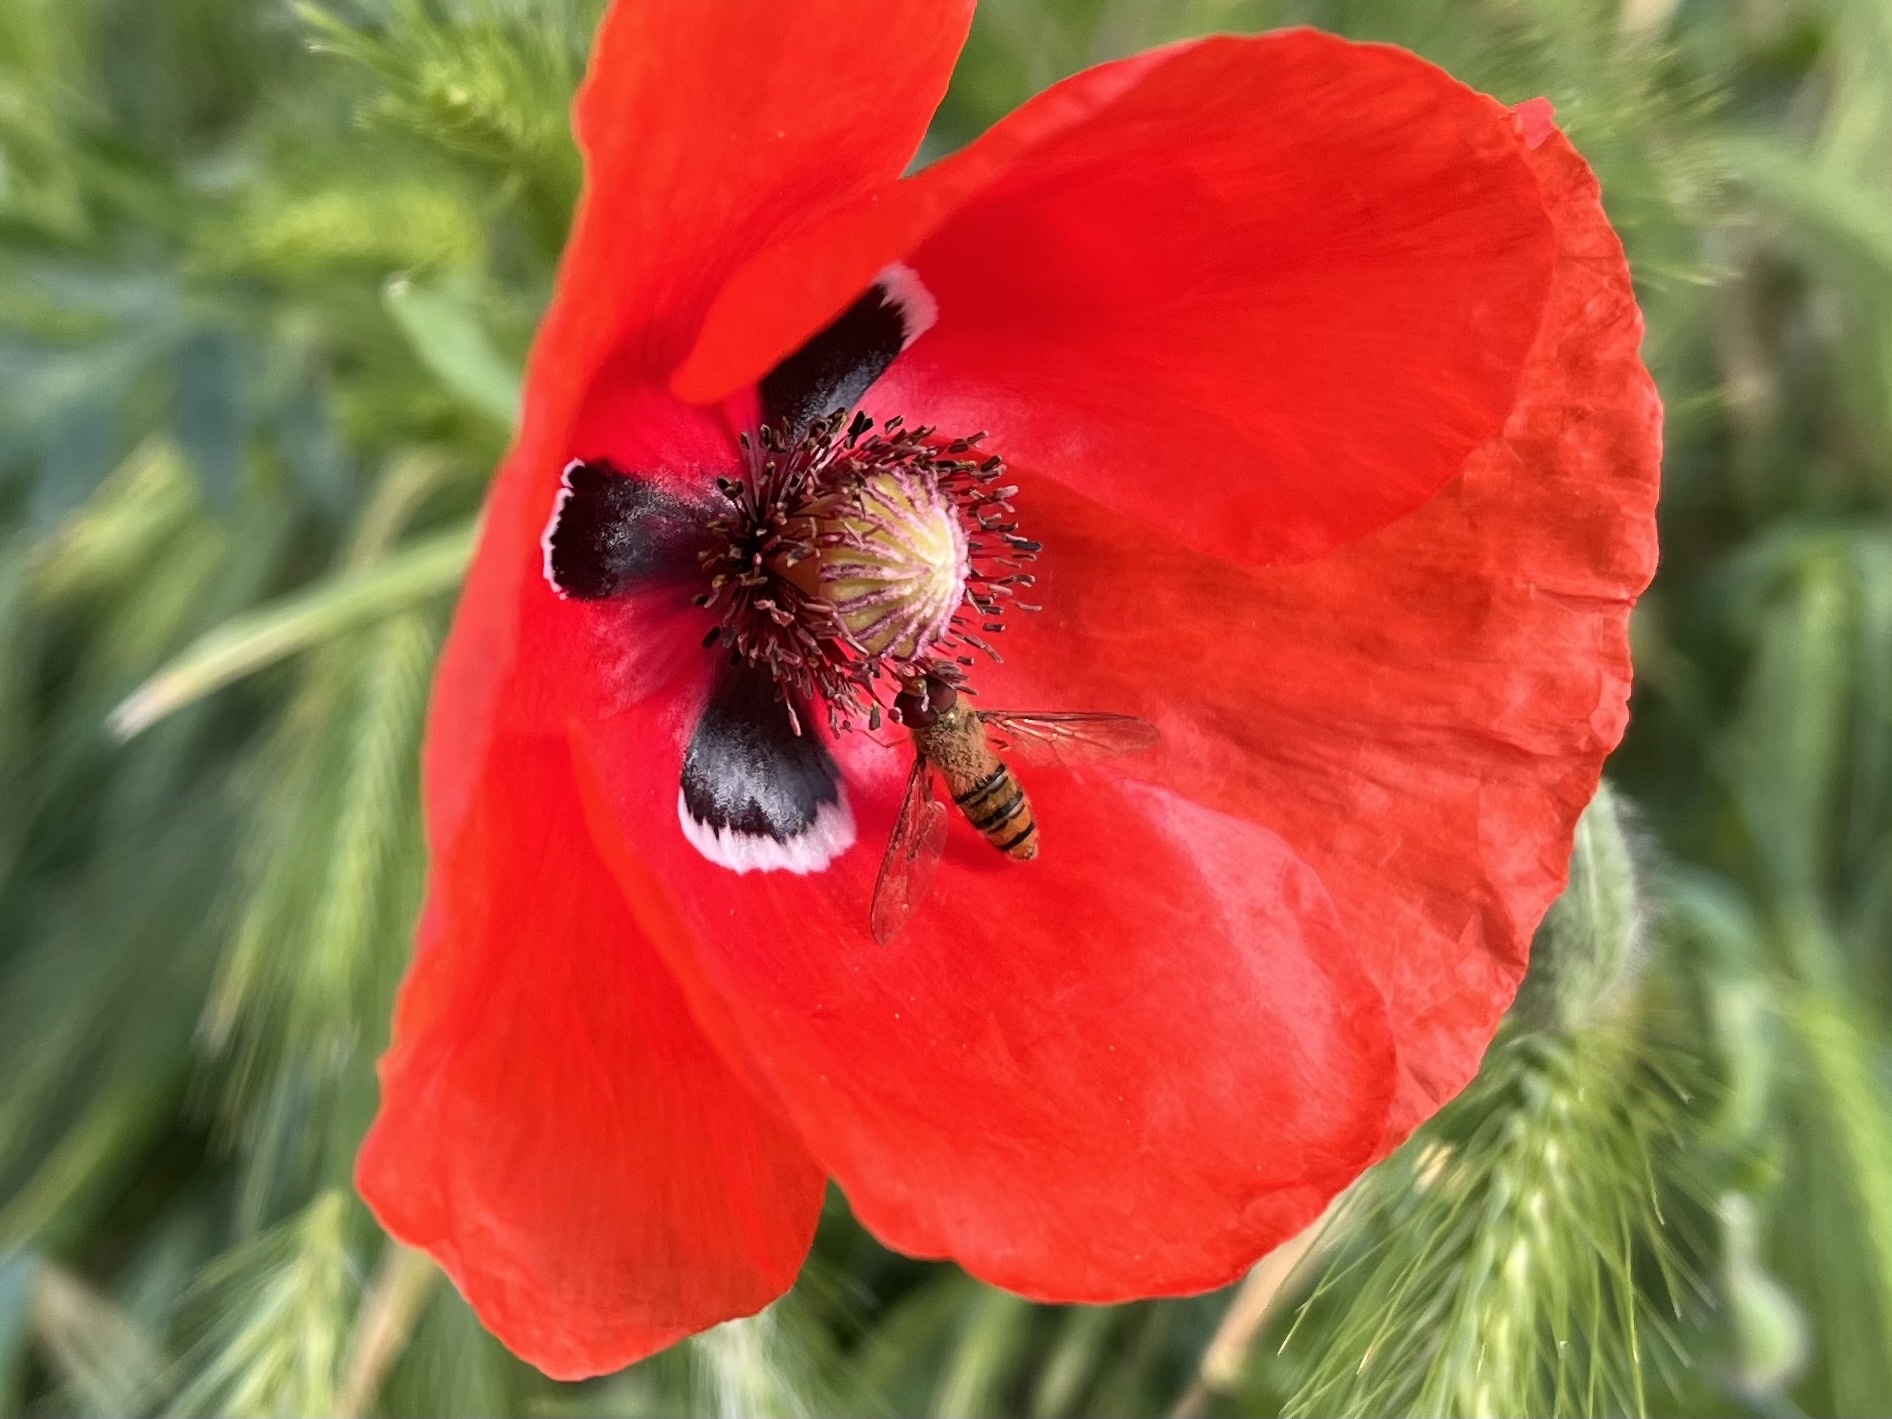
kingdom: Animalia
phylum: Arthropoda
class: Insecta
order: Diptera
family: Syrphidae
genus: Episyrphus
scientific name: Episyrphus balteatus
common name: Marmalade hoverfly
